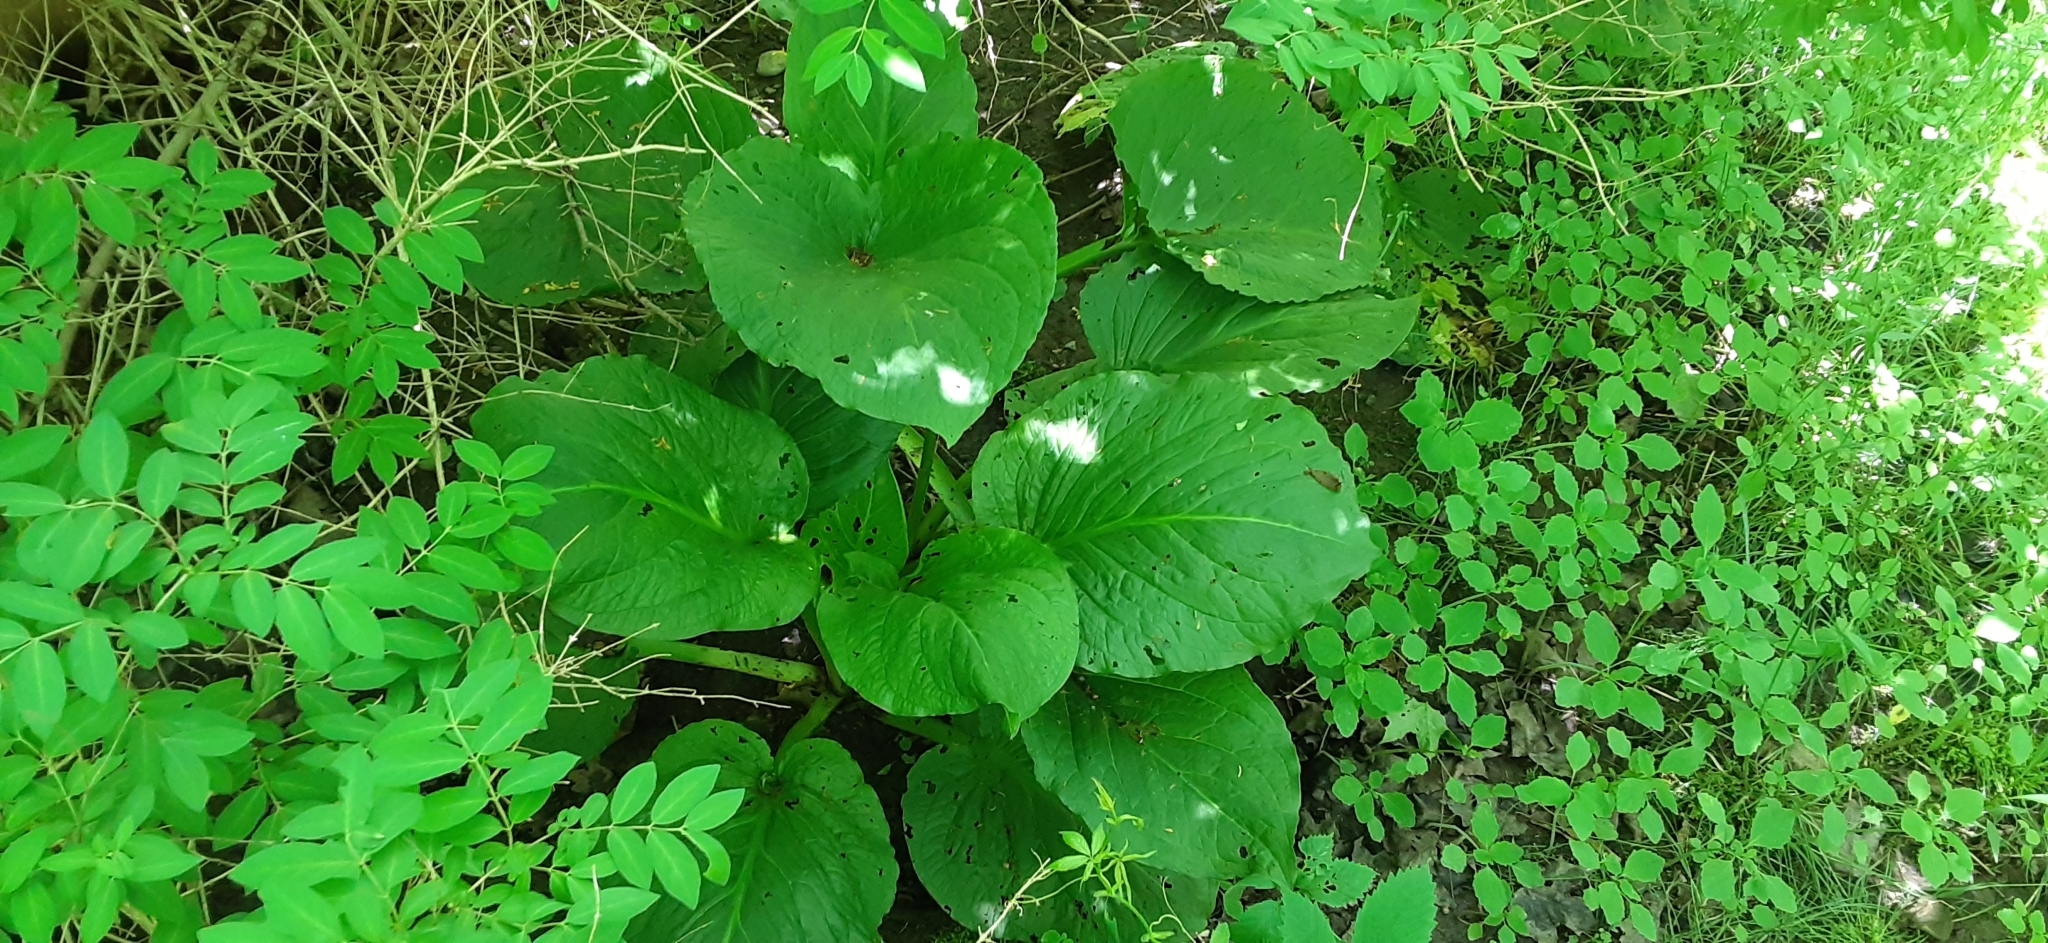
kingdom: Plantae
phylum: Tracheophyta
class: Liliopsida
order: Alismatales
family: Araceae
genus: Symplocarpus
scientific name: Symplocarpus foetidus
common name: Eastern skunk cabbage
